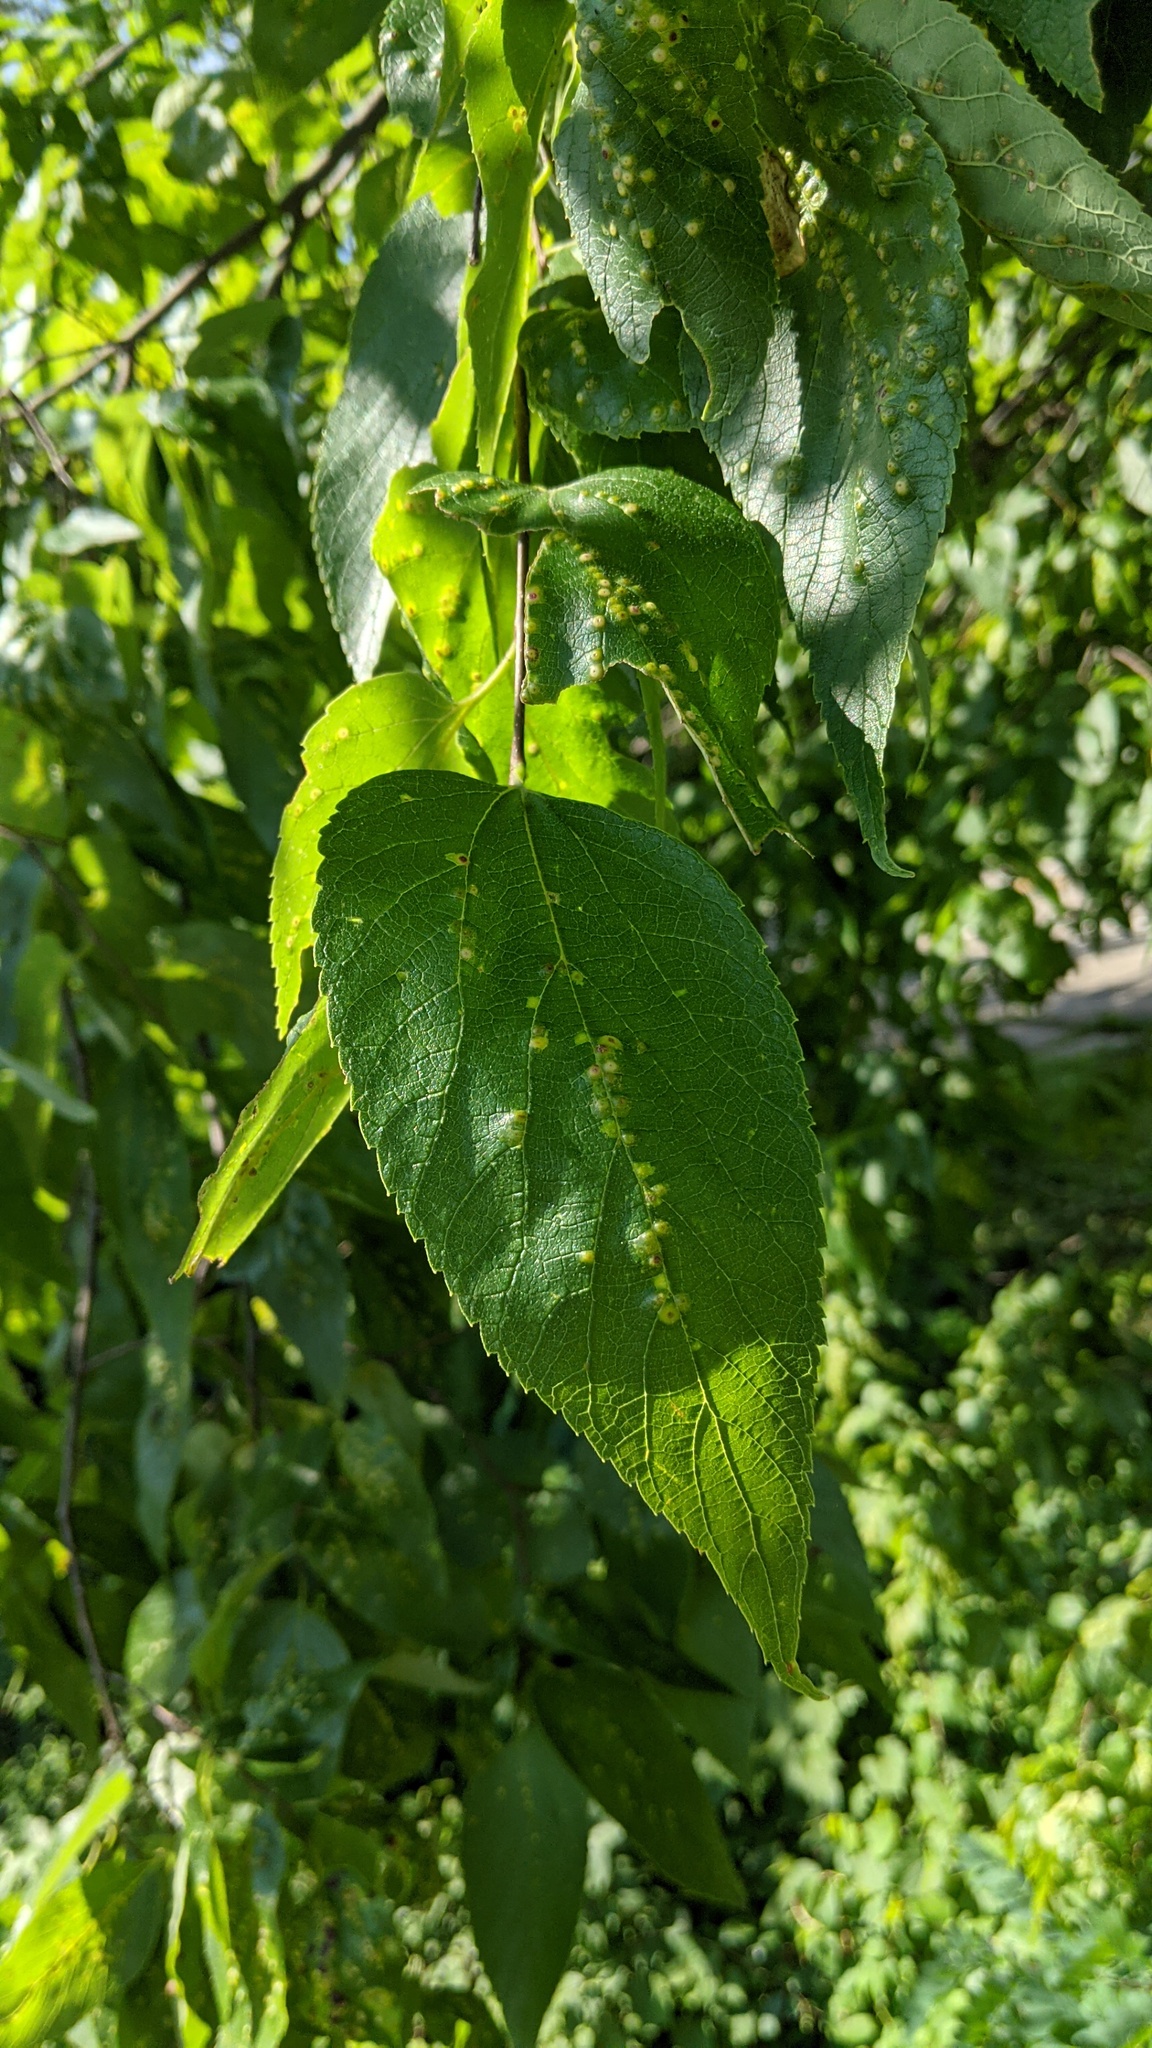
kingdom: Animalia
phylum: Arthropoda
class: Insecta
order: Hemiptera
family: Aphalaridae
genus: Pachypsylla
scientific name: Pachypsylla celtidisvesicula
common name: Hackberry blister gall psyllid
